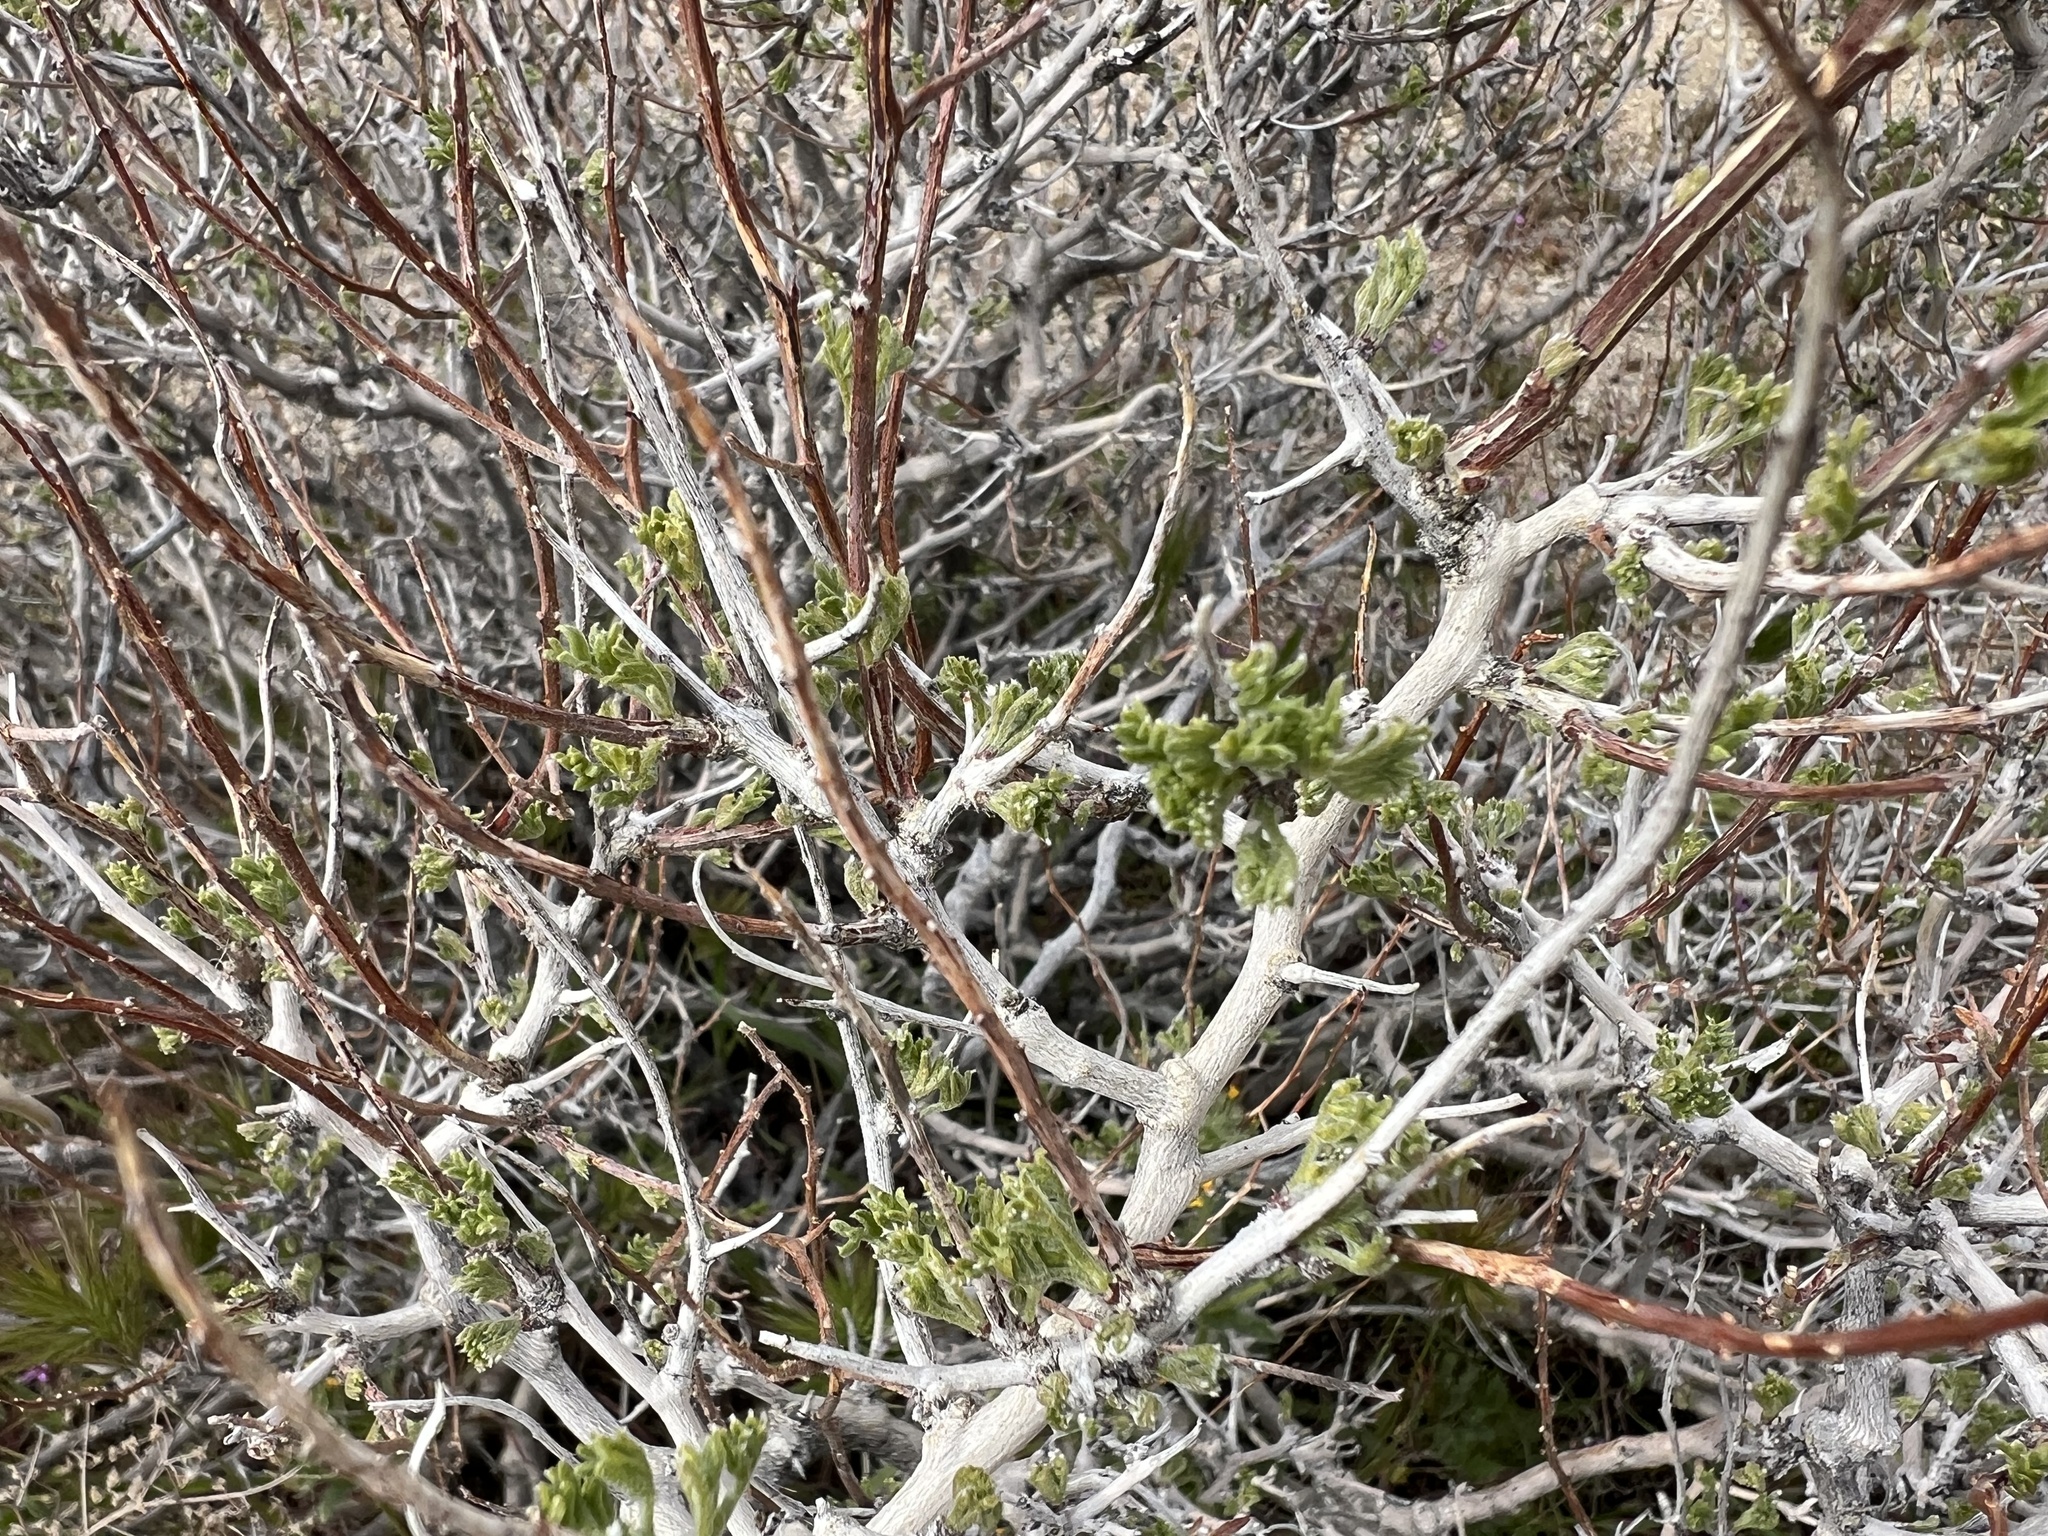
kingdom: Plantae
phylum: Tracheophyta
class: Magnoliopsida
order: Fabales
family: Fabaceae
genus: Psorothamnus
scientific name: Psorothamnus arborescens
